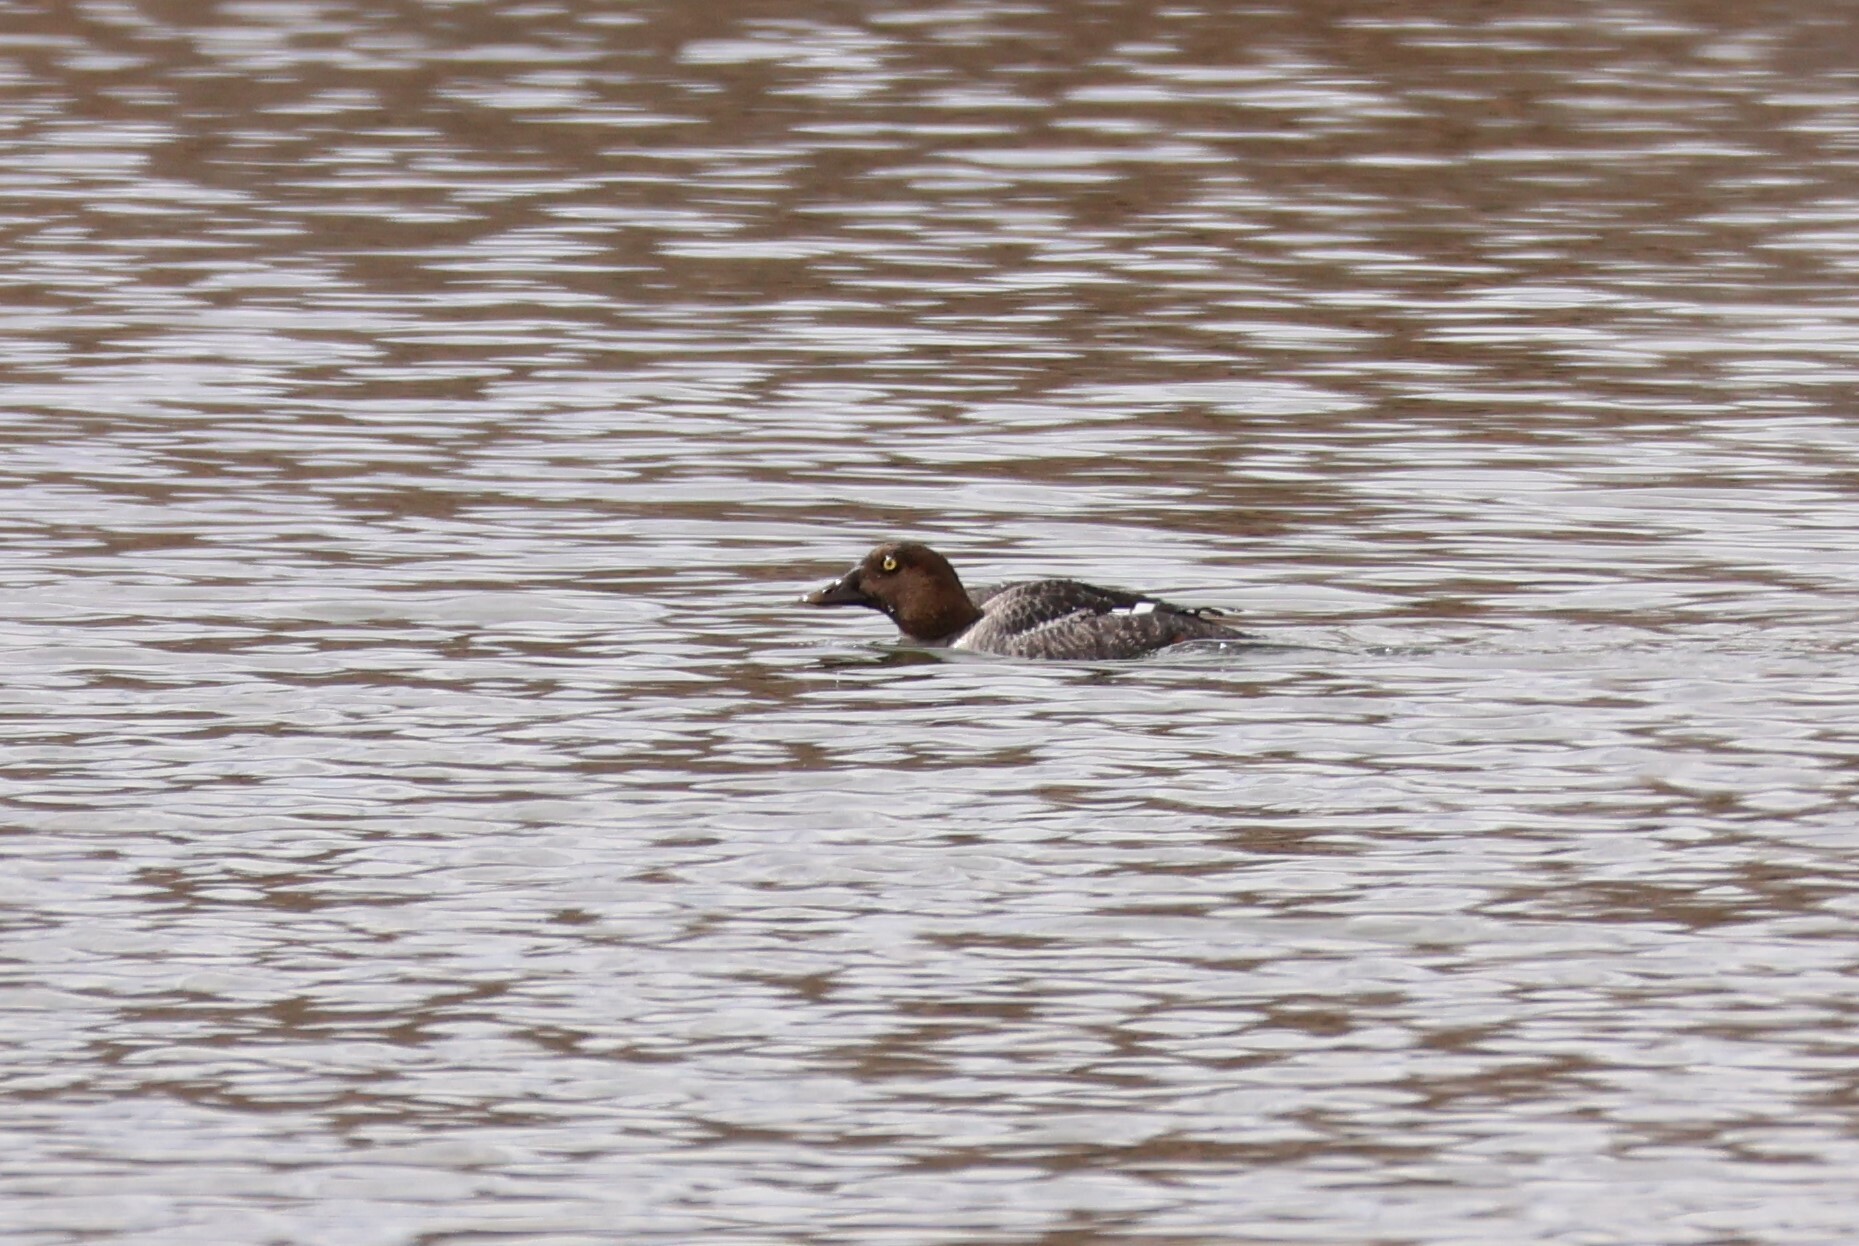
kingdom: Animalia
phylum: Chordata
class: Aves
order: Anseriformes
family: Anatidae
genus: Bucephala
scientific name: Bucephala clangula
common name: Common goldeneye
